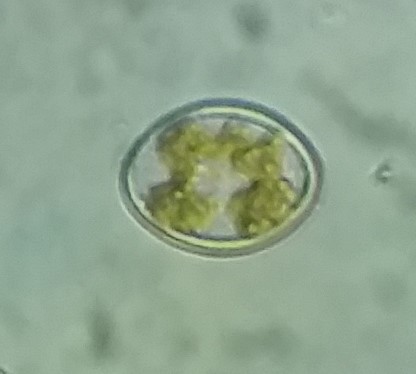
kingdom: Chromista
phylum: Ochrophyta
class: Bacillariophyceae
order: Achnanthales
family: Cocconeidaceae
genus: Cocconeis
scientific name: Cocconeis pediculus
